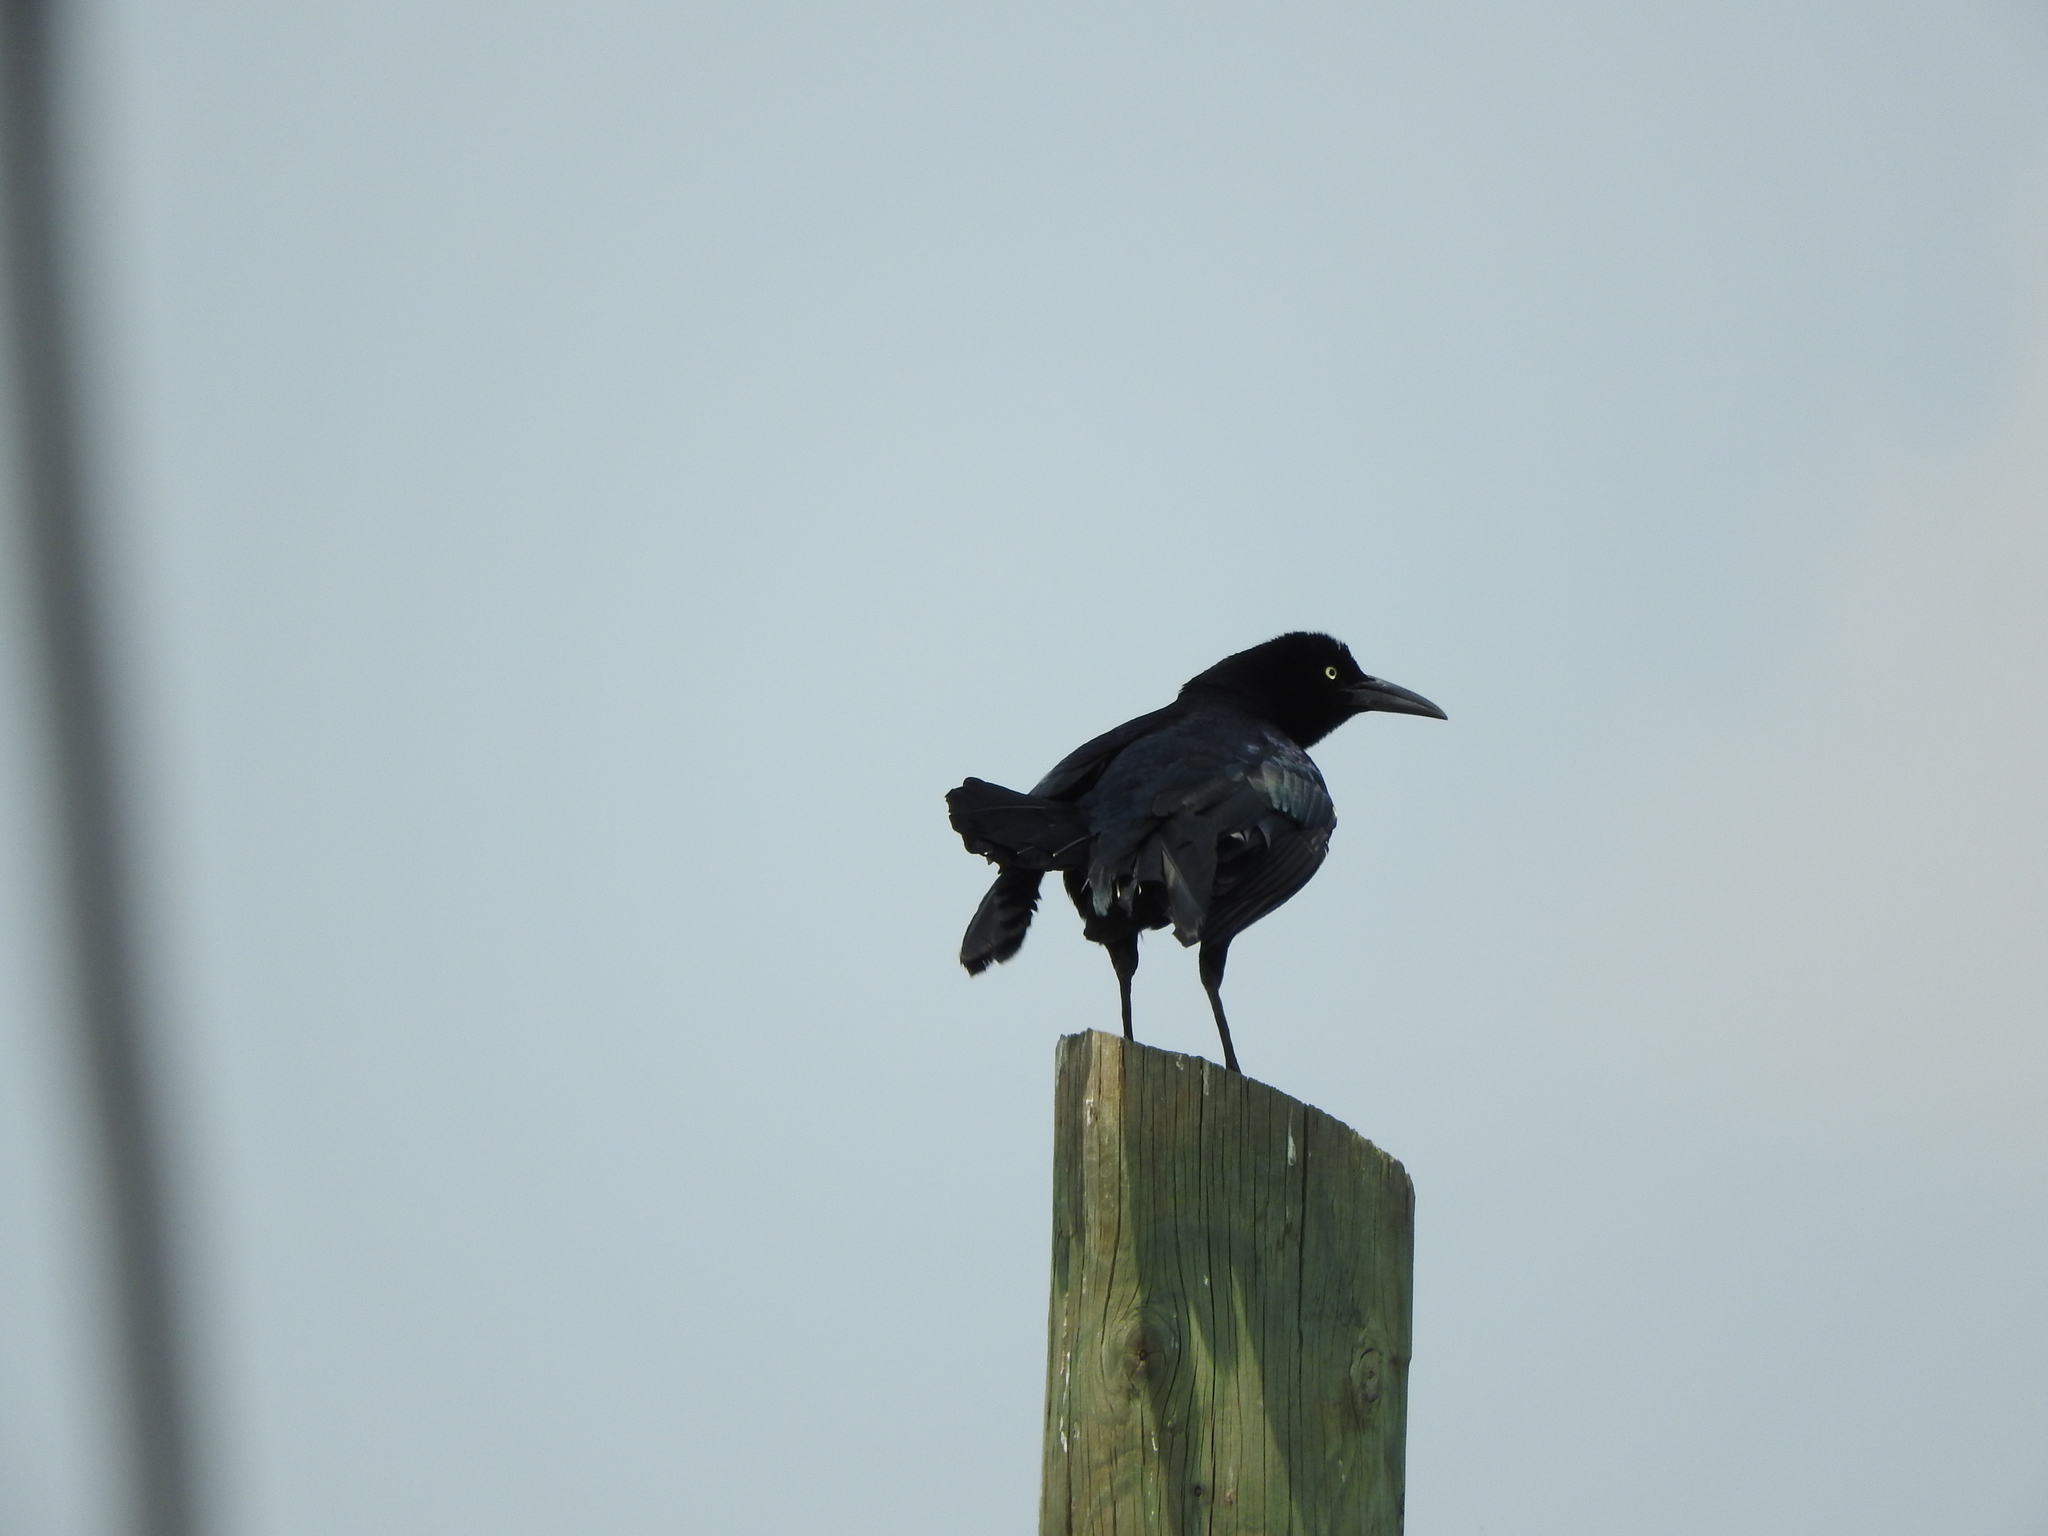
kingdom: Animalia
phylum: Chordata
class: Aves
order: Passeriformes
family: Icteridae
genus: Quiscalus
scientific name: Quiscalus mexicanus
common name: Great-tailed grackle
